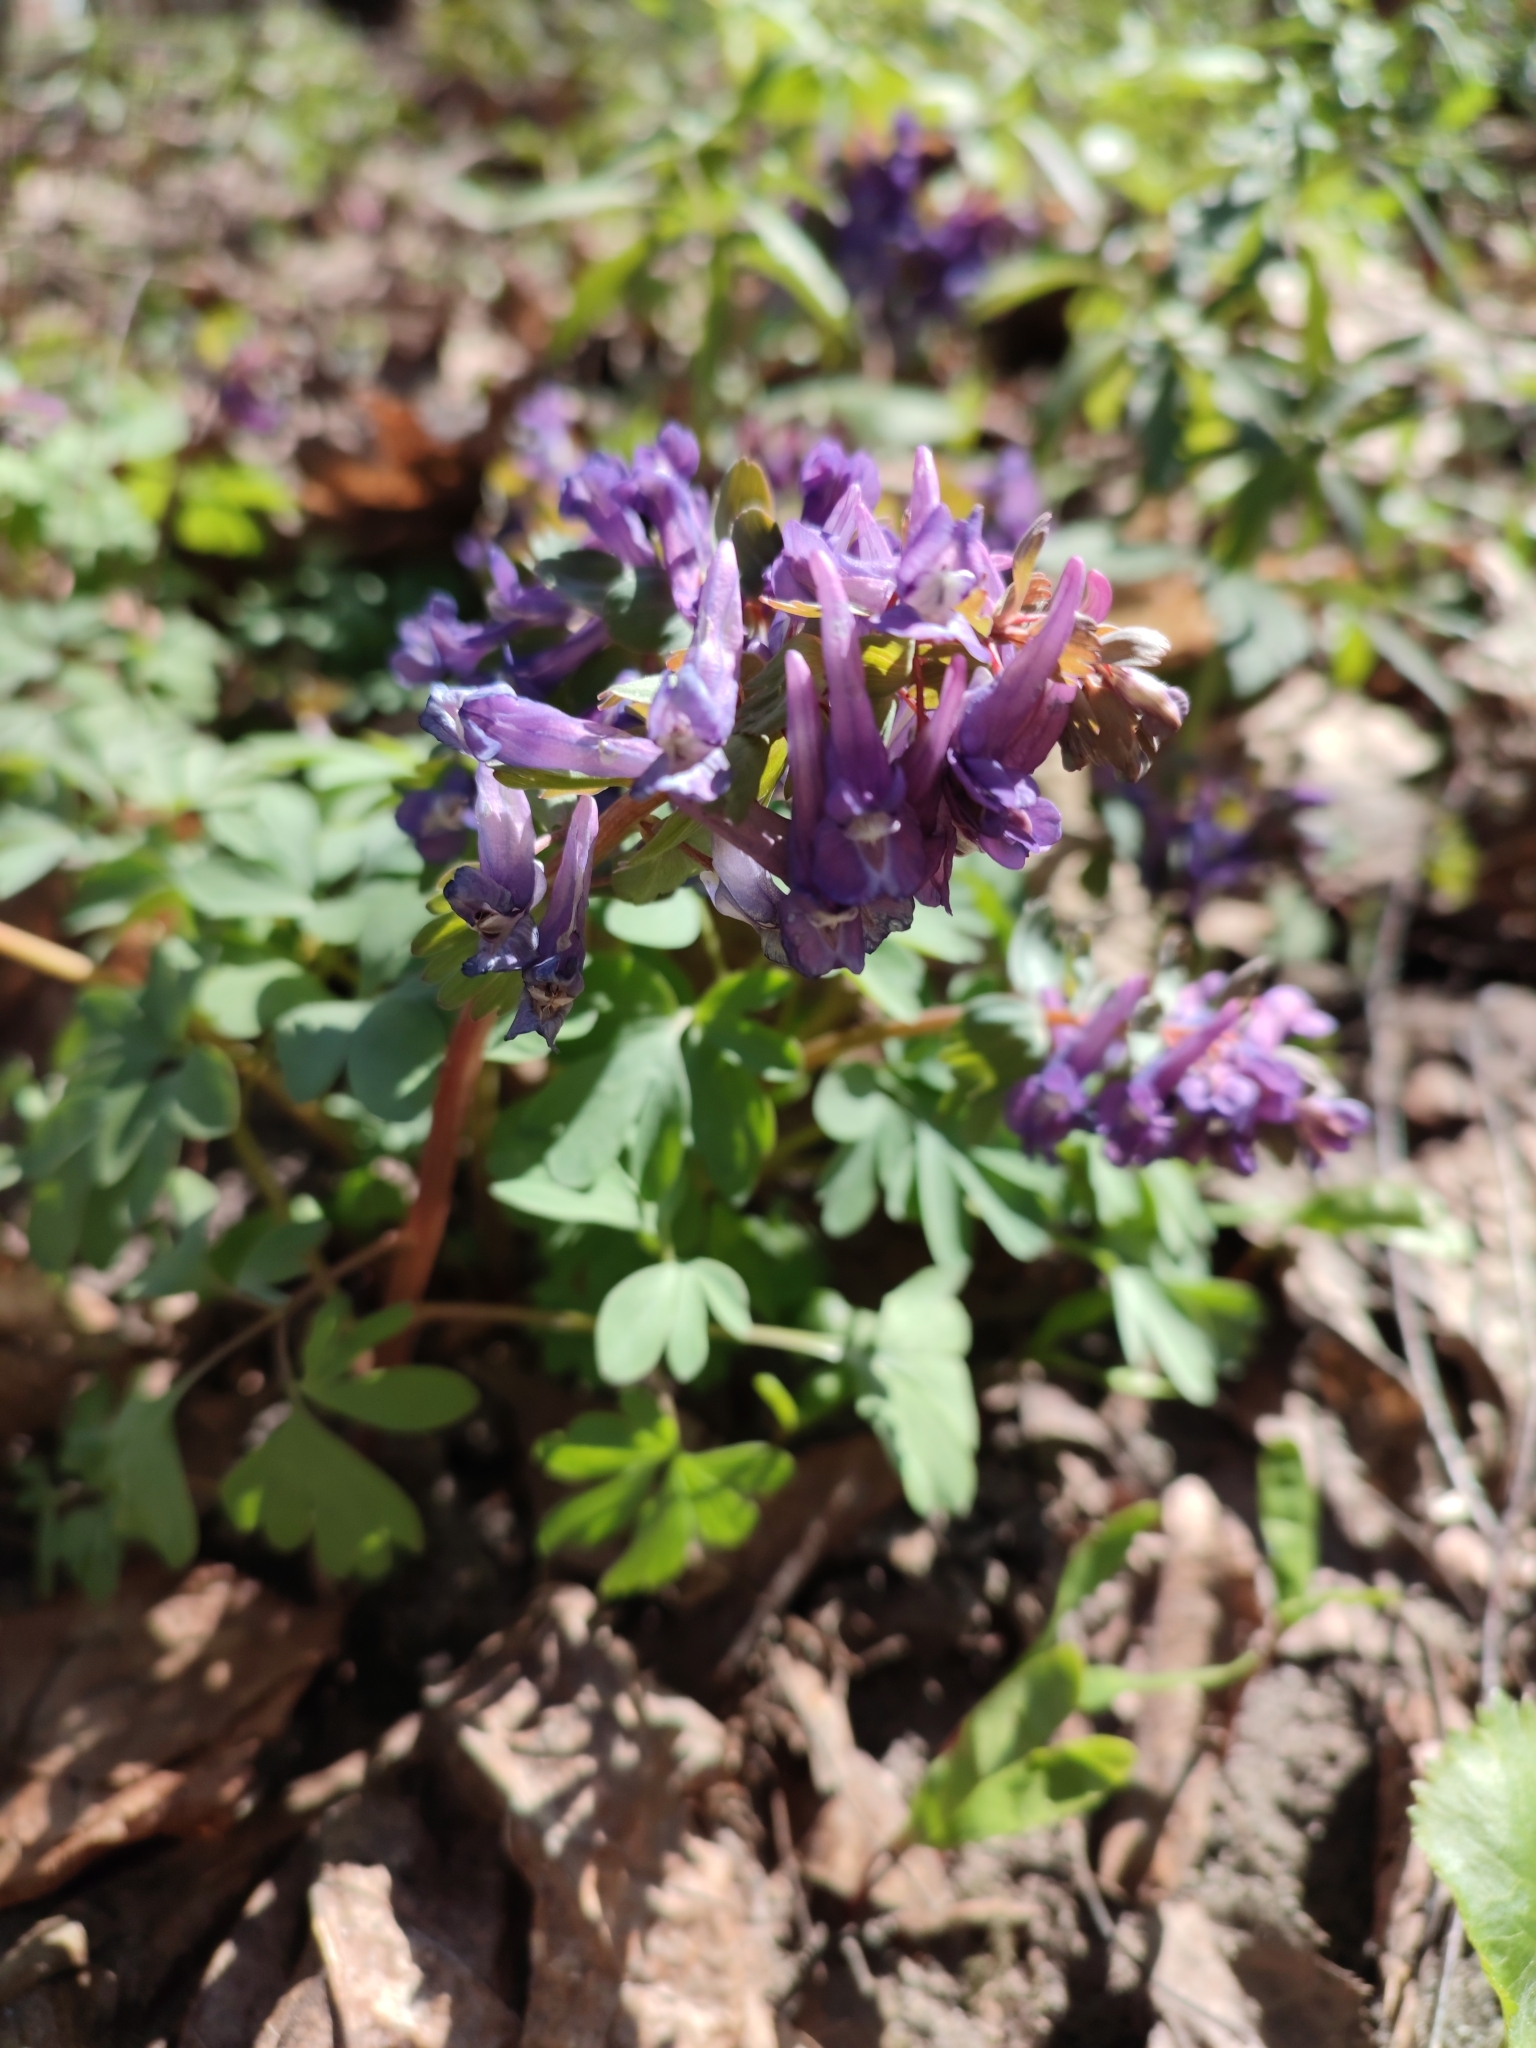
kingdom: Plantae
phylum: Tracheophyta
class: Magnoliopsida
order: Ranunculales
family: Papaveraceae
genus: Corydalis
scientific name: Corydalis solida
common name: Bird-in-a-bush
